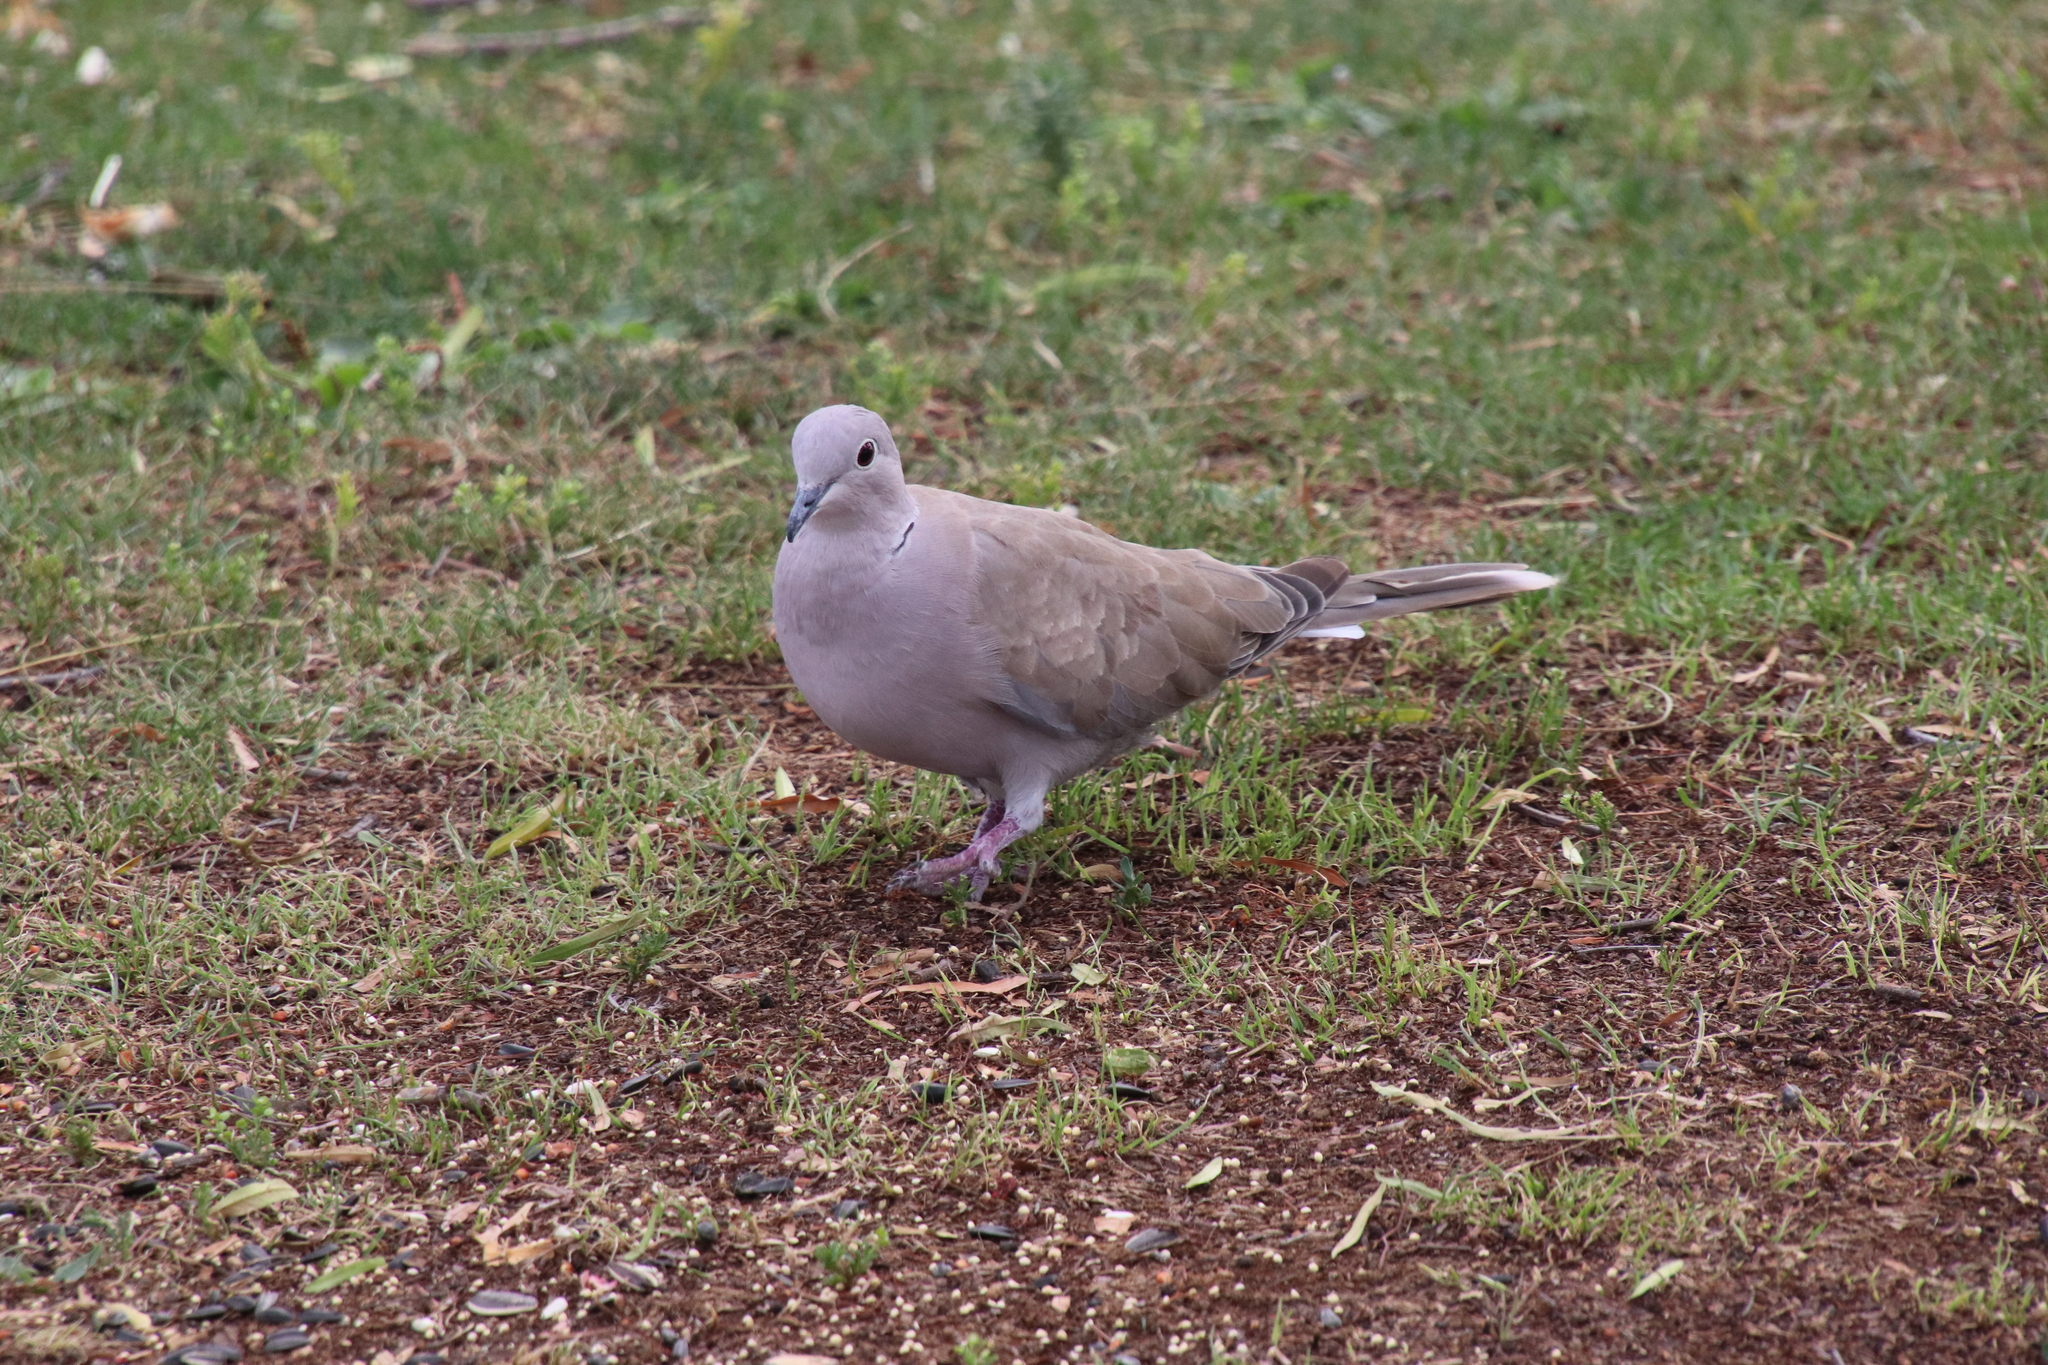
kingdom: Animalia
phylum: Chordata
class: Aves
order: Columbiformes
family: Columbidae
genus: Streptopelia
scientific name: Streptopelia decaocto
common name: Eurasian collared dove
